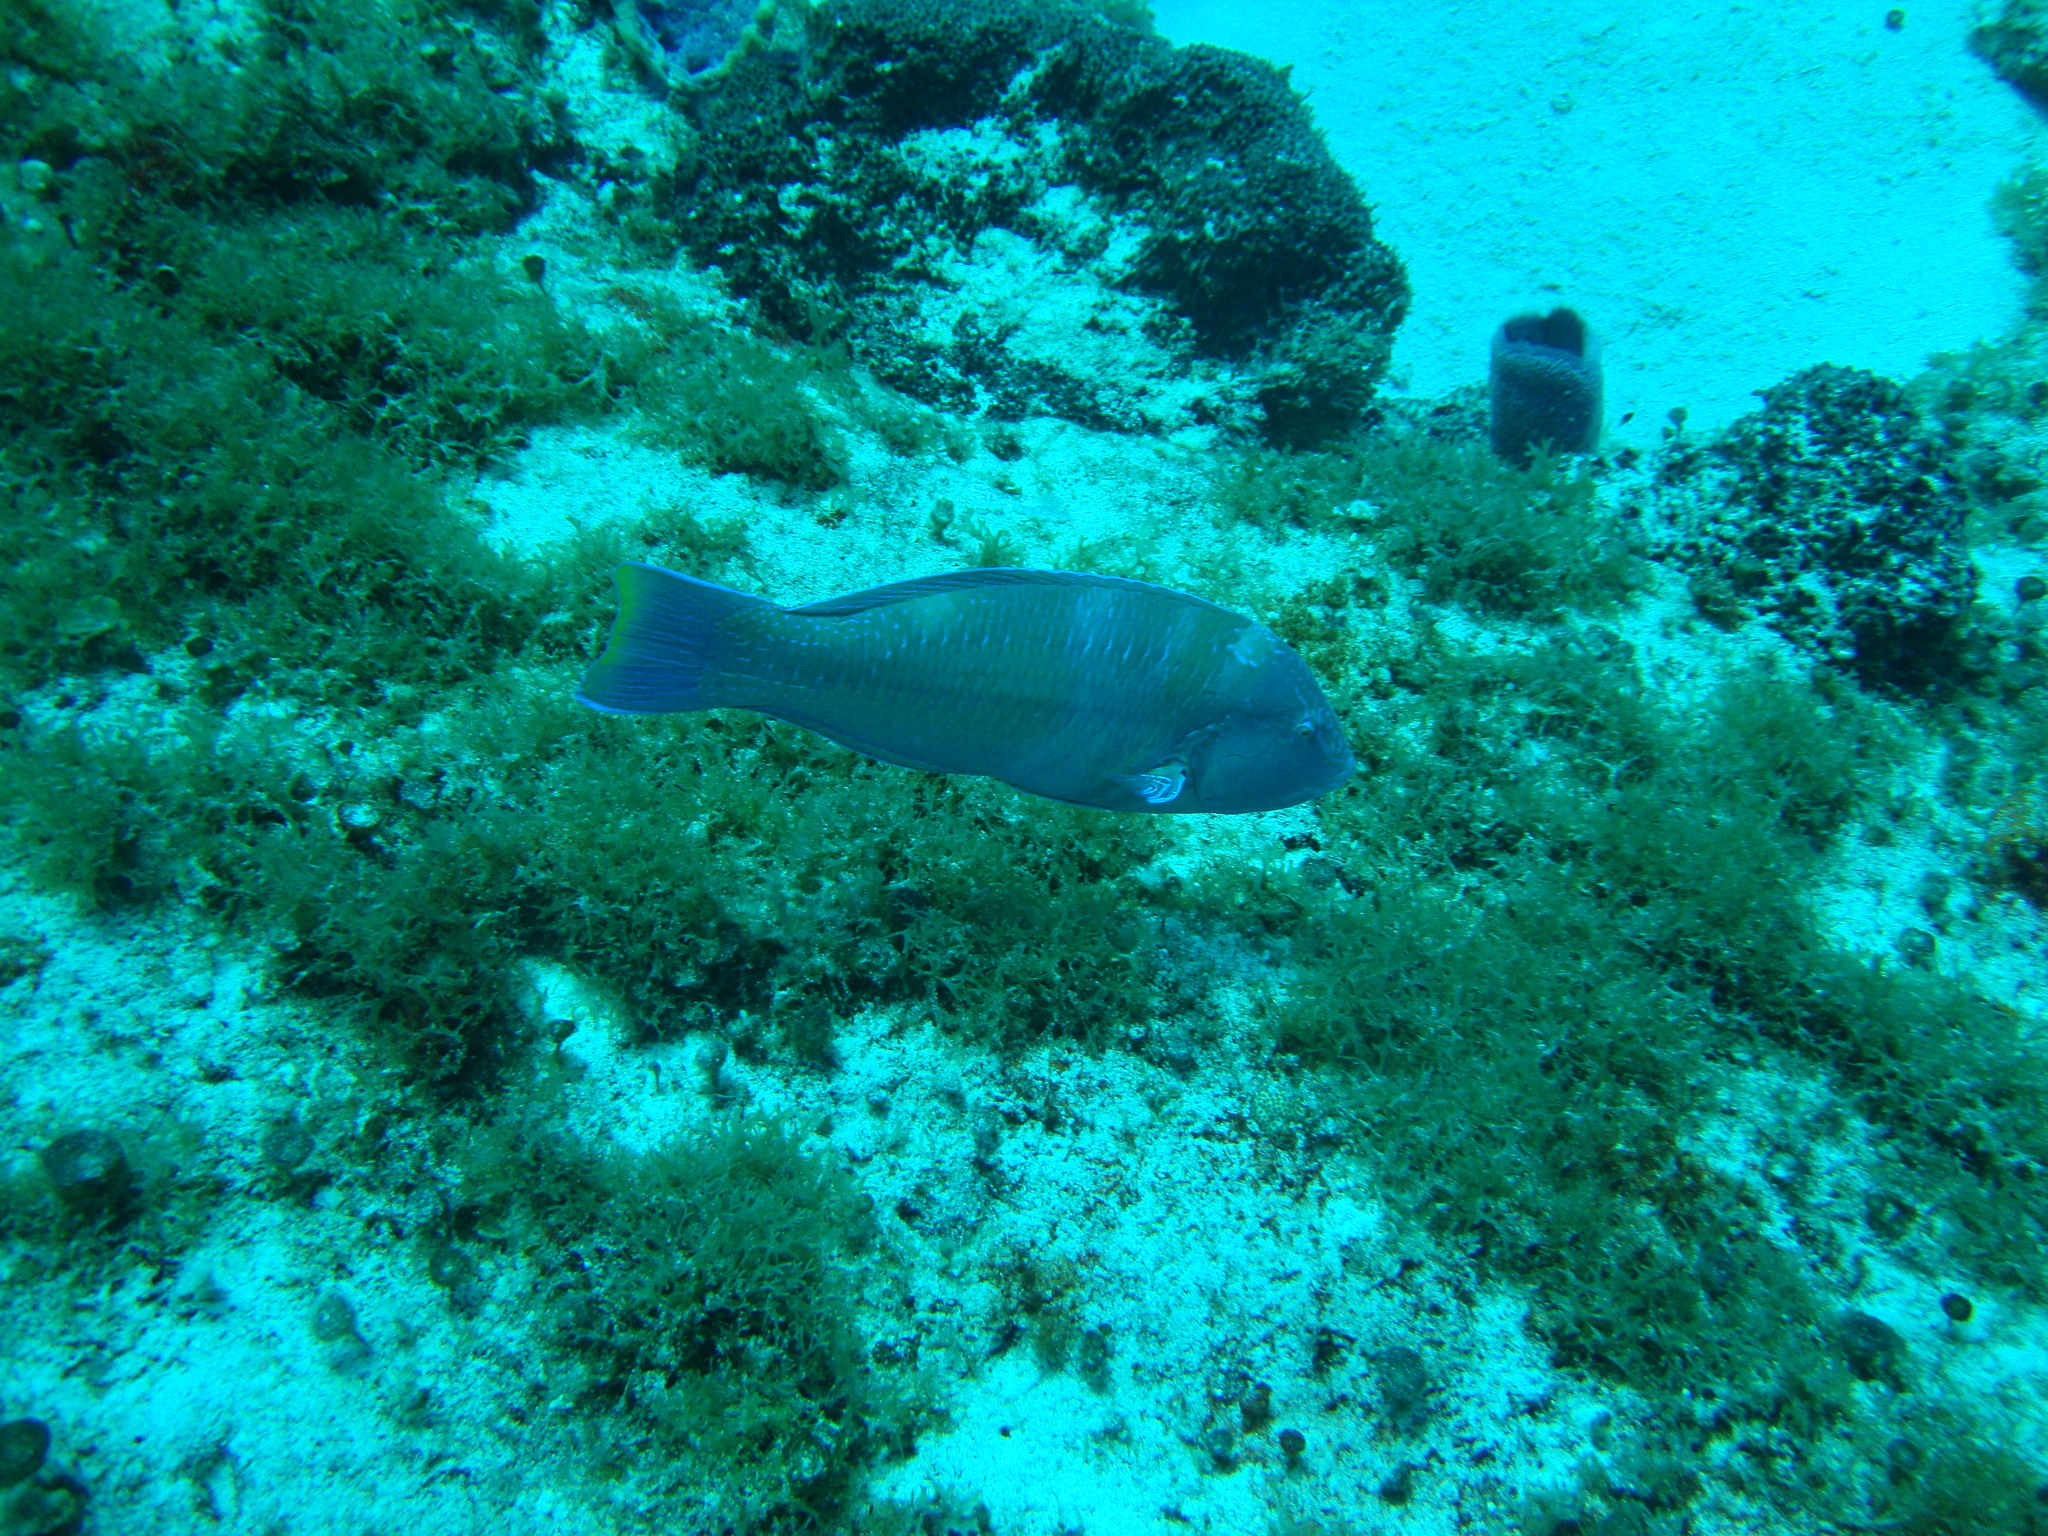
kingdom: Animalia
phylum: Chordata
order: Perciformes
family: Labridae
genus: Halichoeres
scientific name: Halichoeres radiatus
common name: Puddingwife
